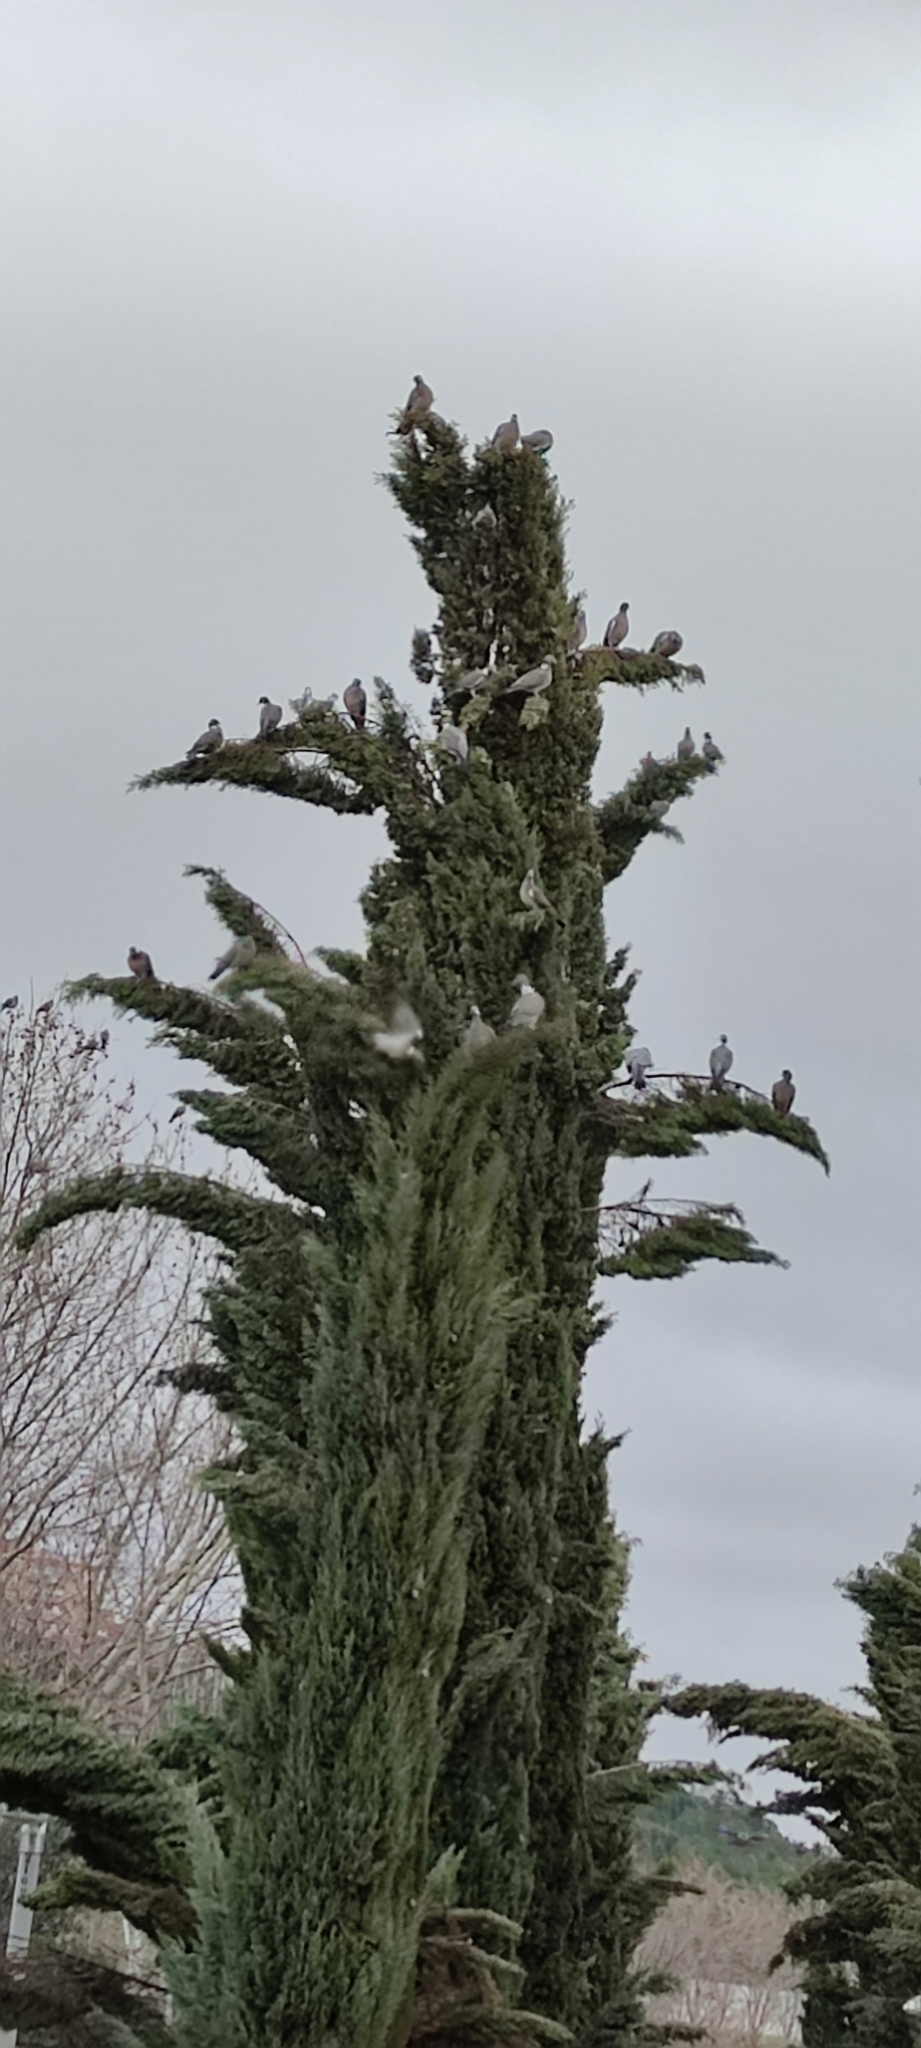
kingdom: Animalia
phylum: Chordata
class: Aves
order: Columbiformes
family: Columbidae
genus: Columba
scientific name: Columba palumbus
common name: Common wood pigeon
